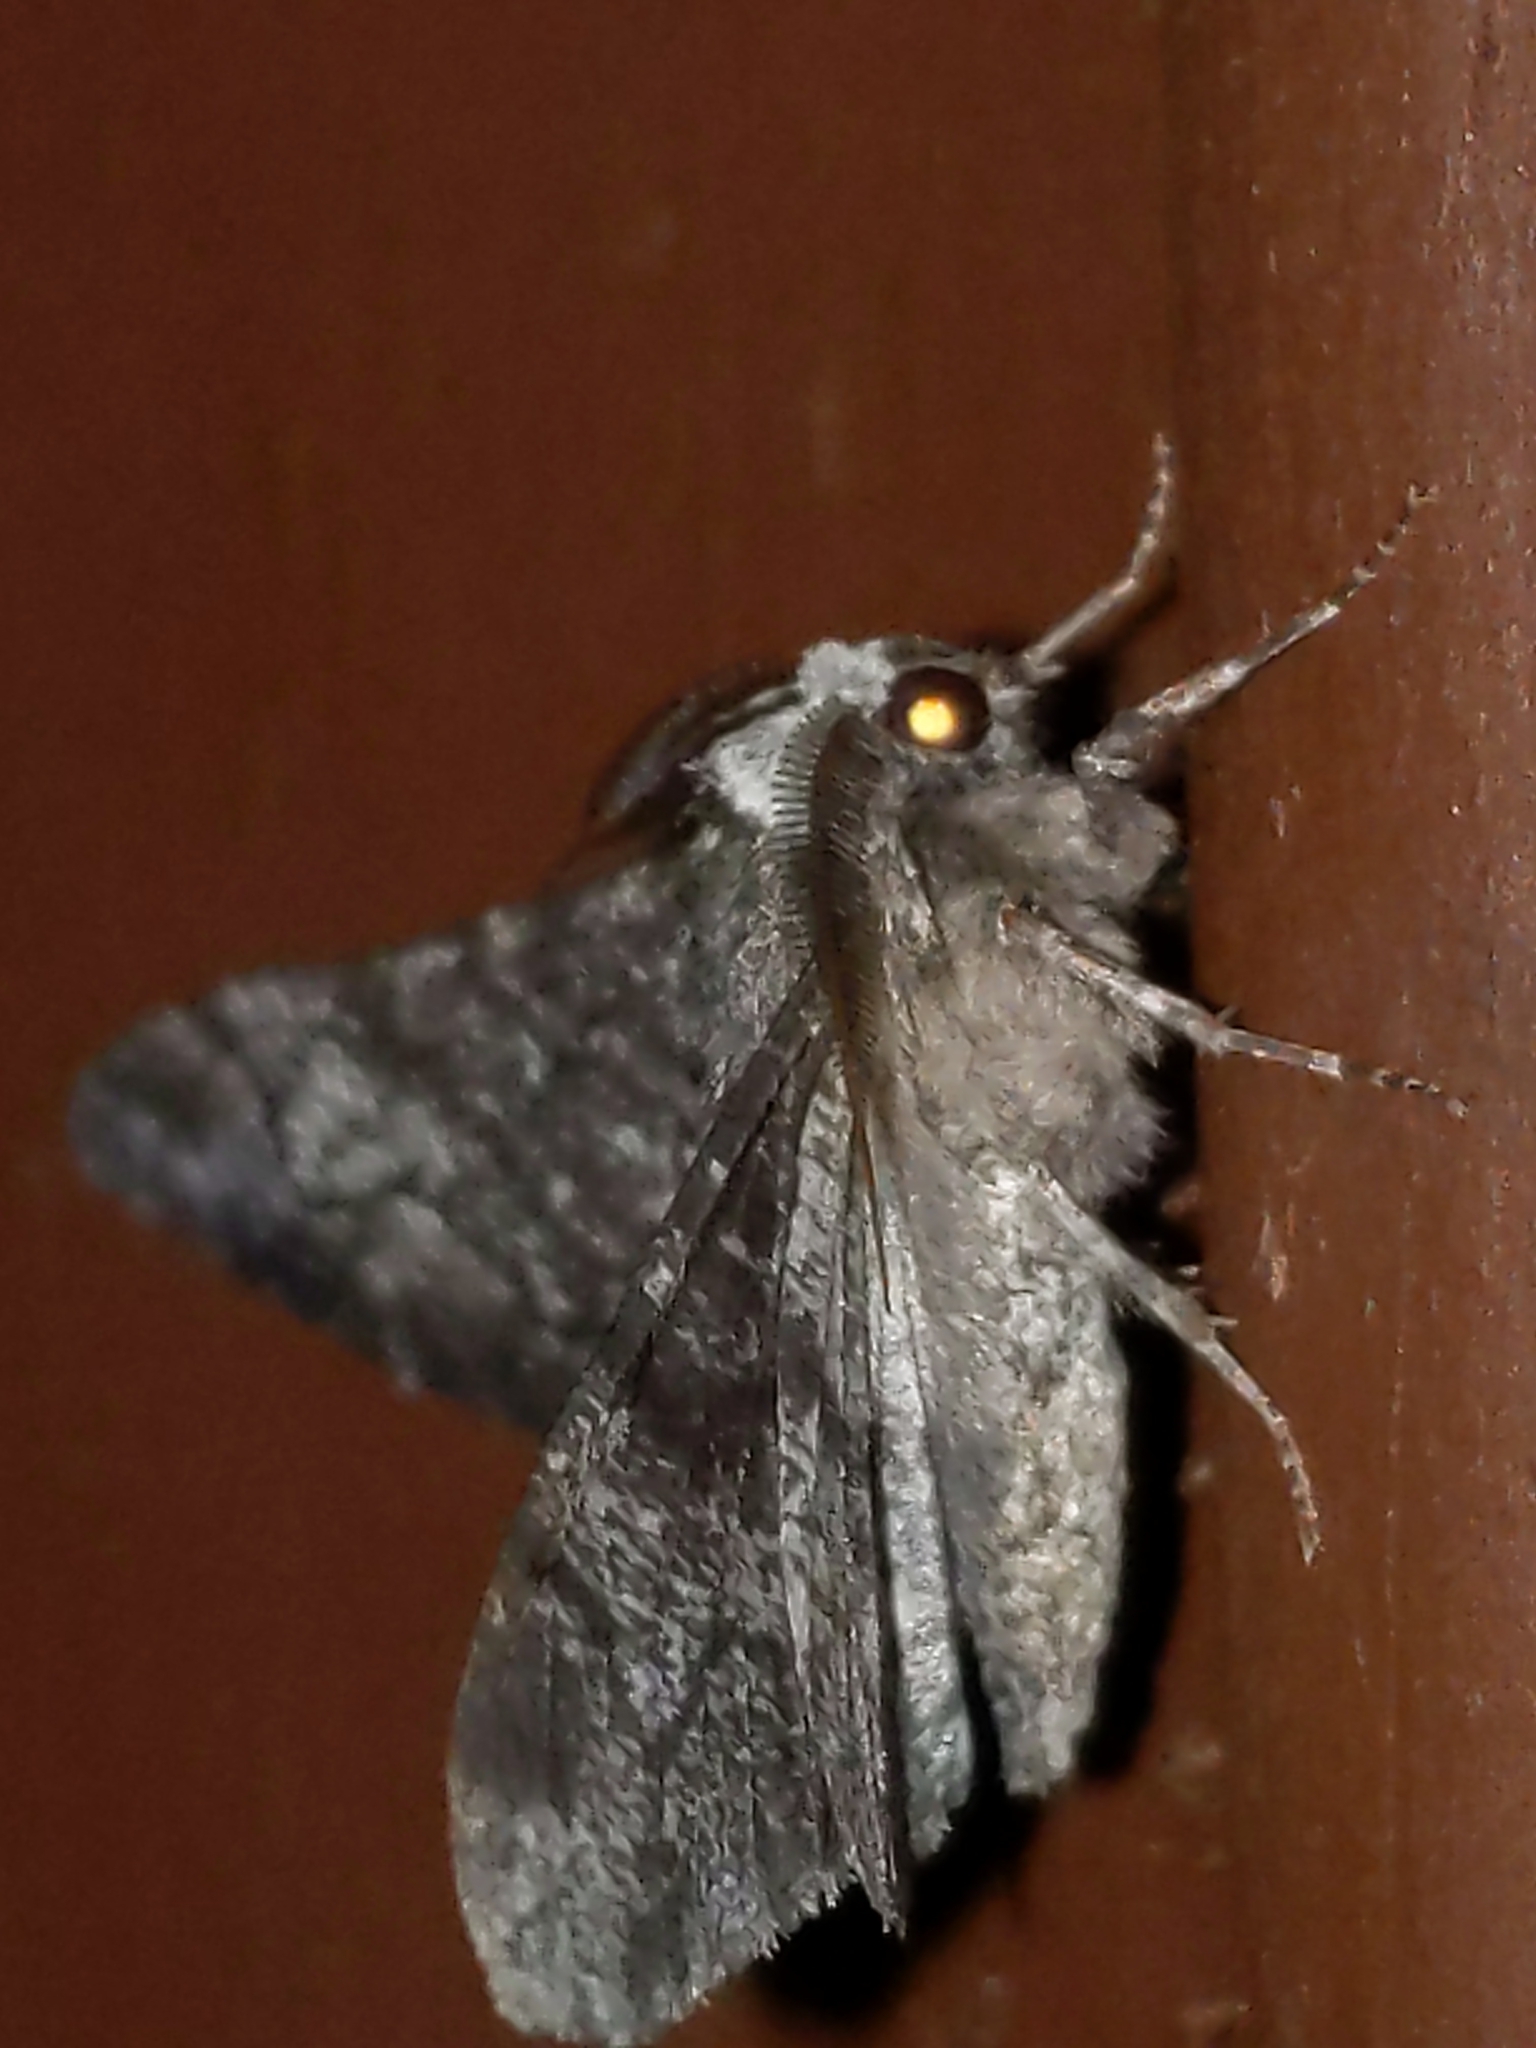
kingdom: Animalia
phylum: Arthropoda
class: Insecta
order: Lepidoptera
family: Geometridae
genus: Biston
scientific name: Biston betularia
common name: Peppered moth
